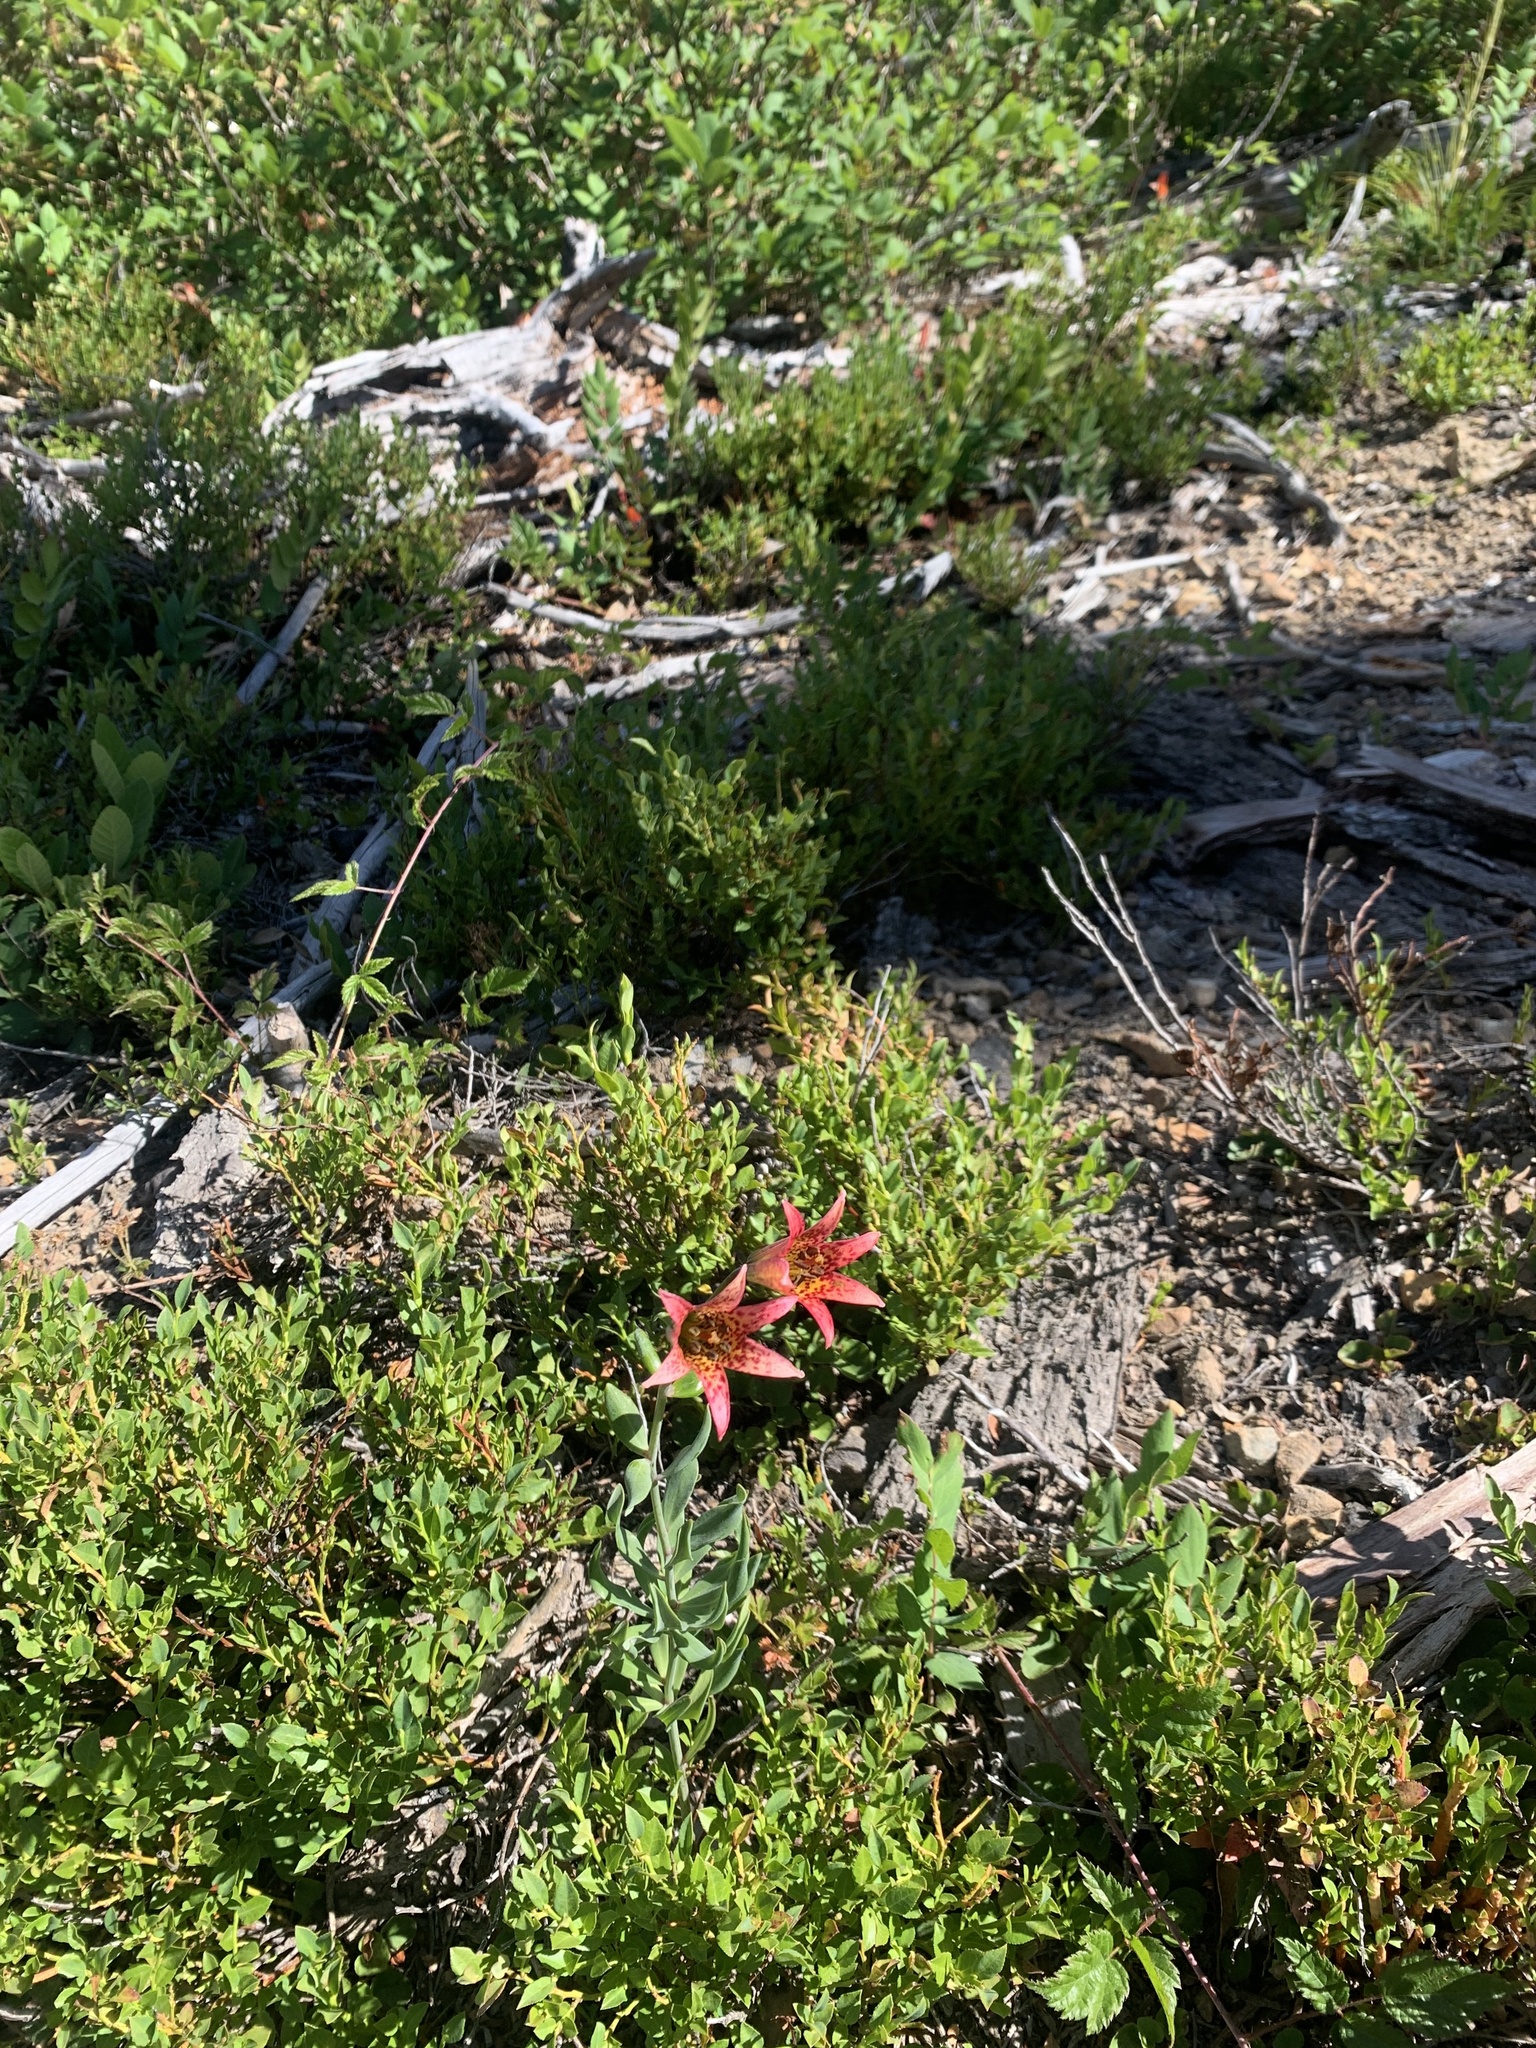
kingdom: Plantae
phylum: Tracheophyta
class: Liliopsida
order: Liliales
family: Liliaceae
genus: Lilium
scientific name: Lilium bolanderi
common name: Bolander's lily
